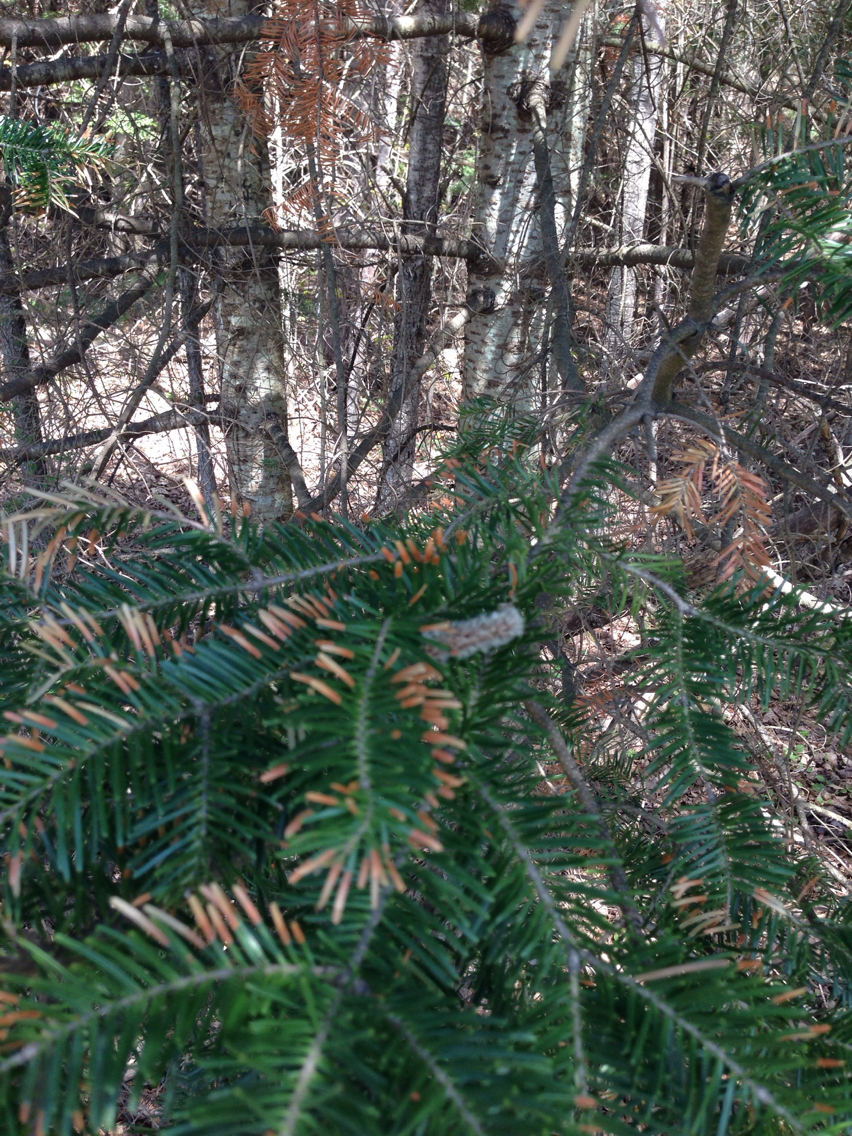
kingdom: Plantae
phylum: Tracheophyta
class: Pinopsida
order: Pinales
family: Pinaceae
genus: Abies
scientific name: Abies balsamea
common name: Balsam fir
